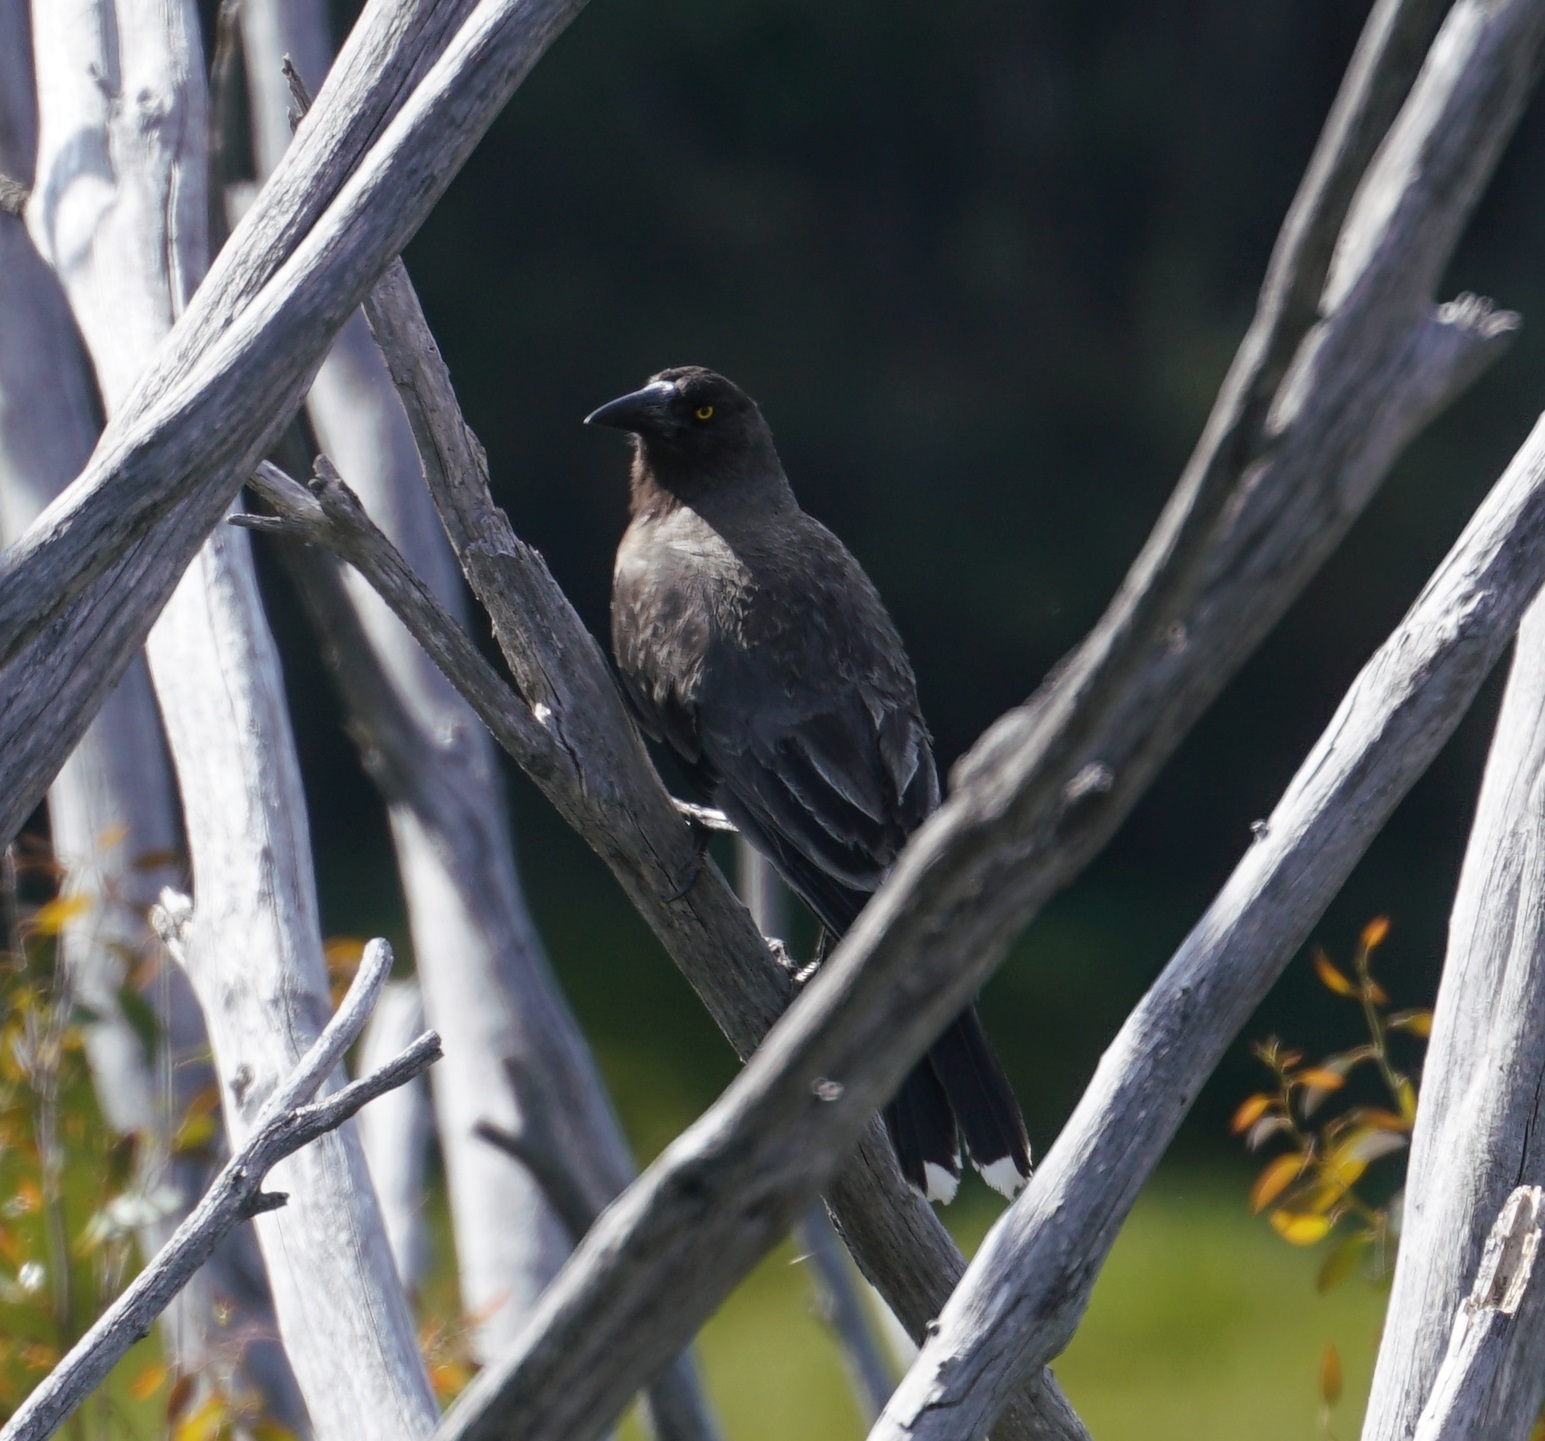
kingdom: Animalia
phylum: Chordata
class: Aves
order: Passeriformes
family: Cracticidae
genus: Strepera
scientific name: Strepera versicolor
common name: Grey currawong
